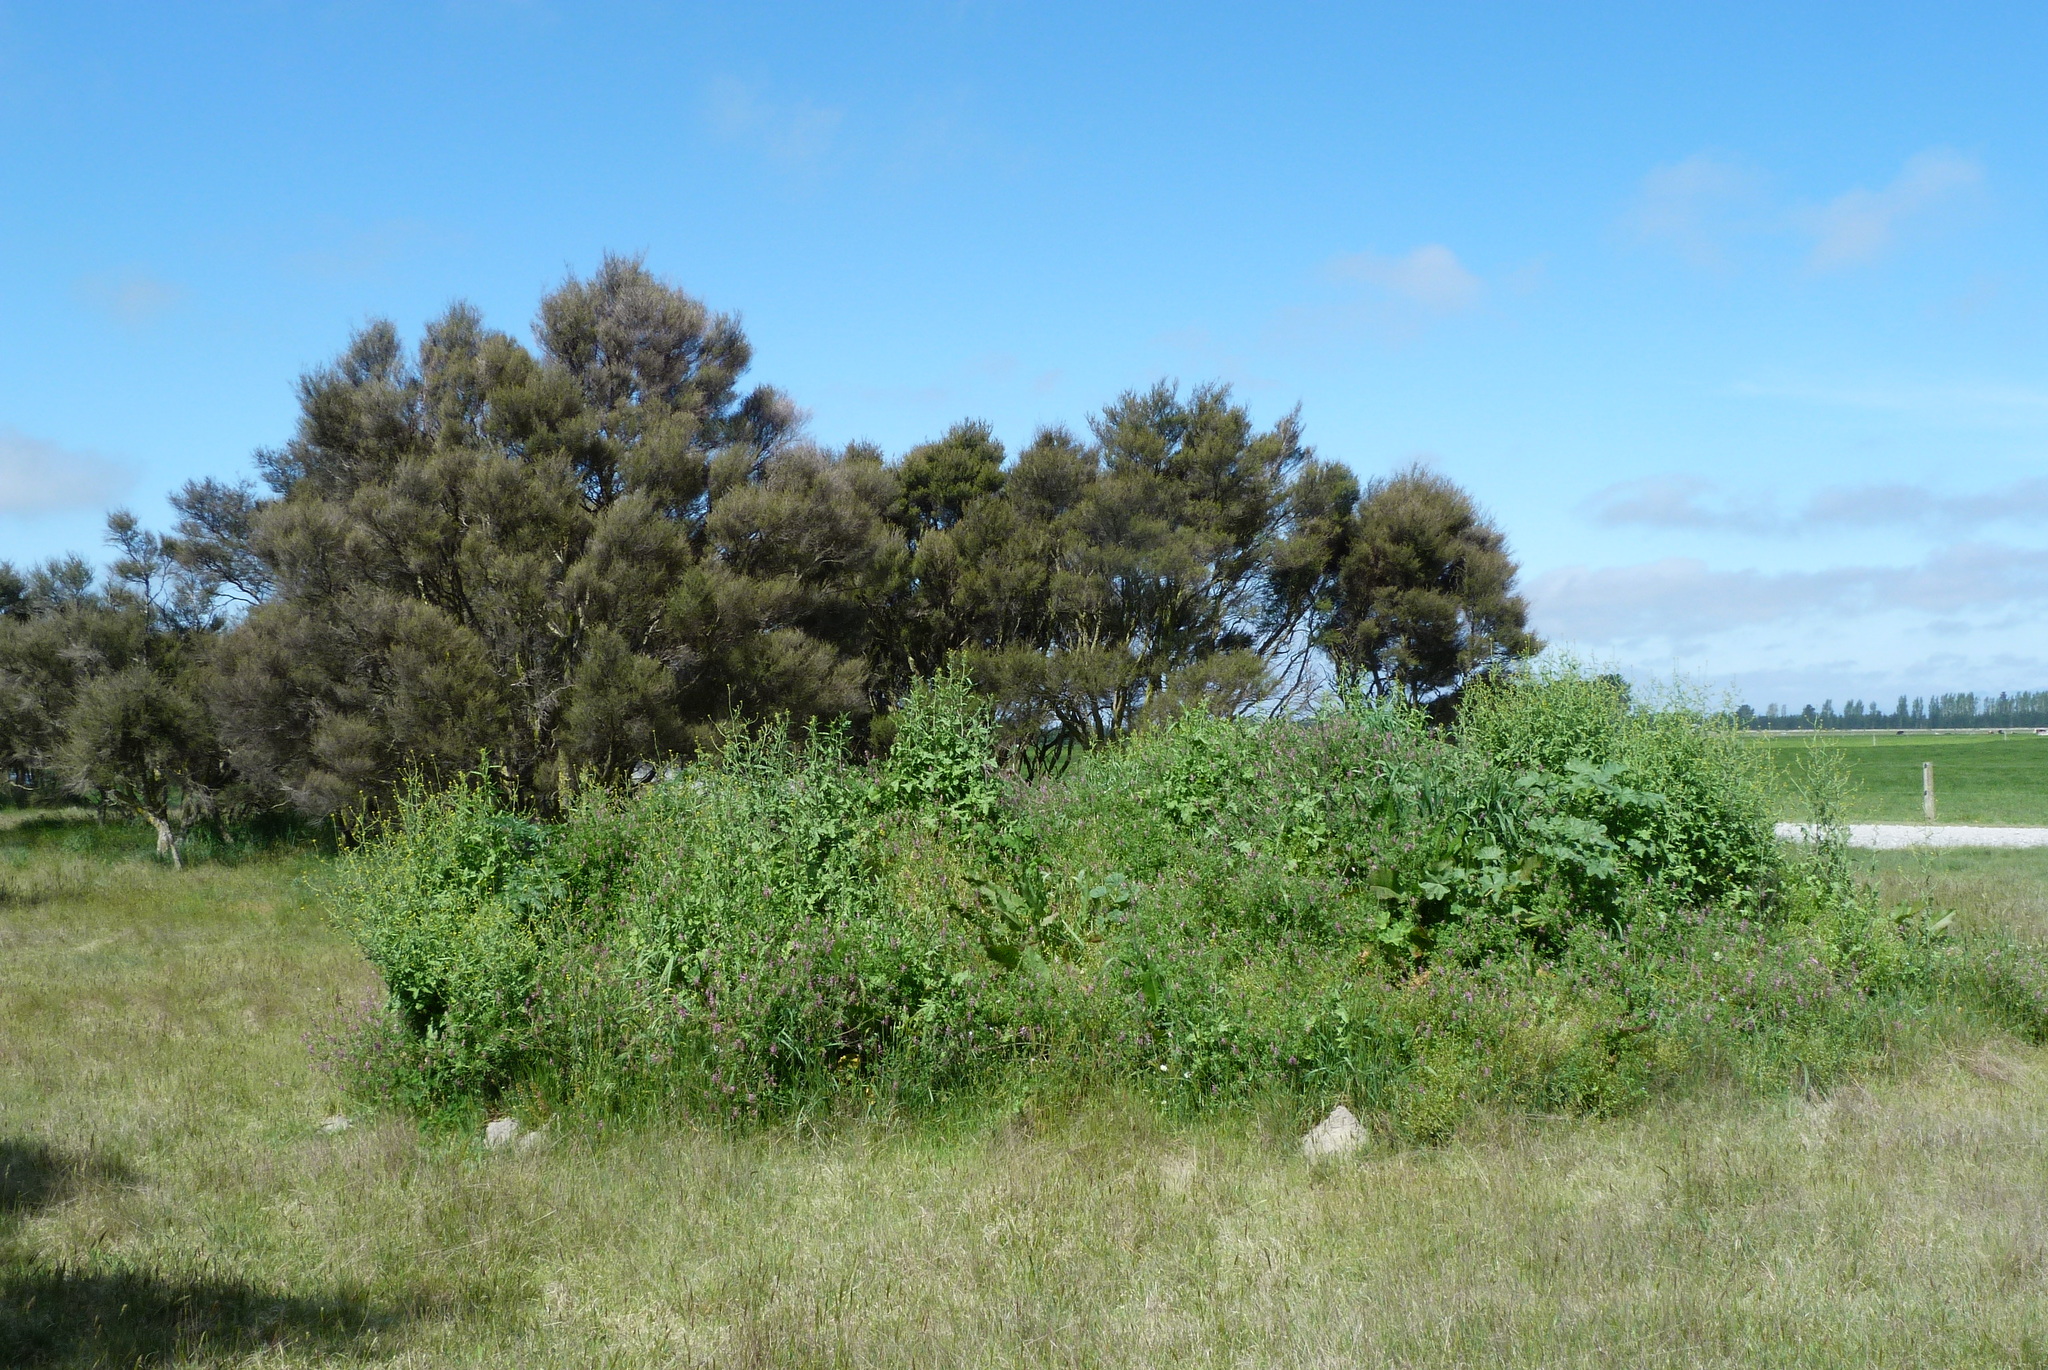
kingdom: Plantae
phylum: Tracheophyta
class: Magnoliopsida
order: Brassicales
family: Brassicaceae
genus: Sisymbrium
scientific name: Sisymbrium officinale
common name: Hedge mustard
